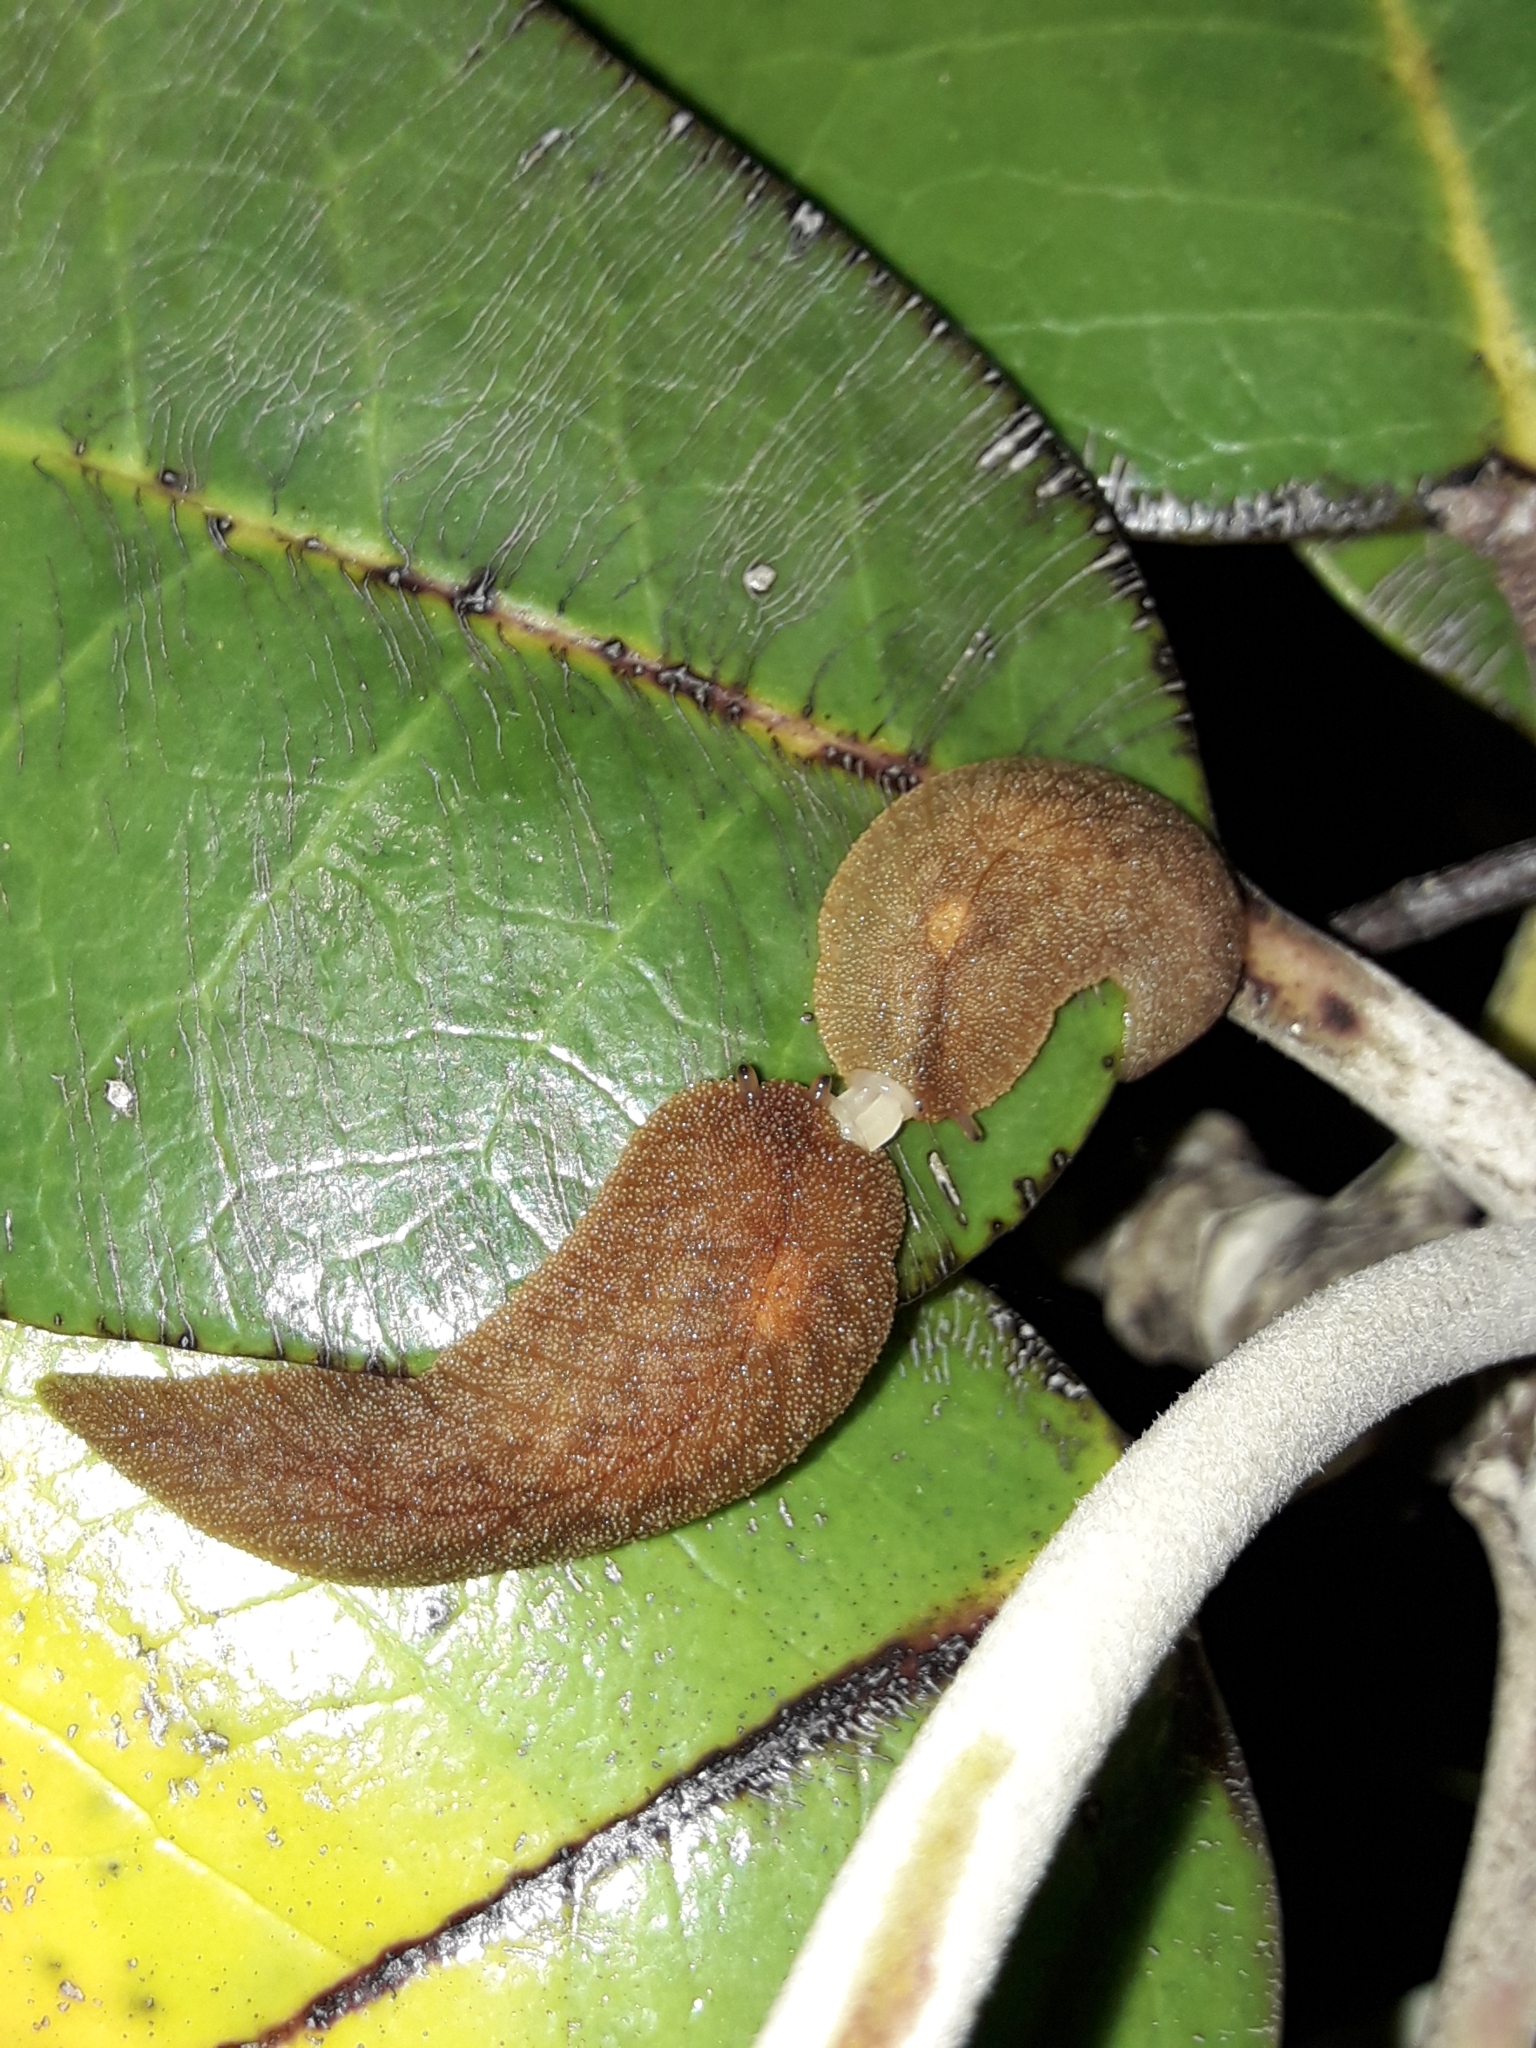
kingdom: Animalia
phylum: Mollusca
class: Gastropoda
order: Stylommatophora
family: Athoracophoridae
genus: Athoracophorus
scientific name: Athoracophorus bitentaculatus
